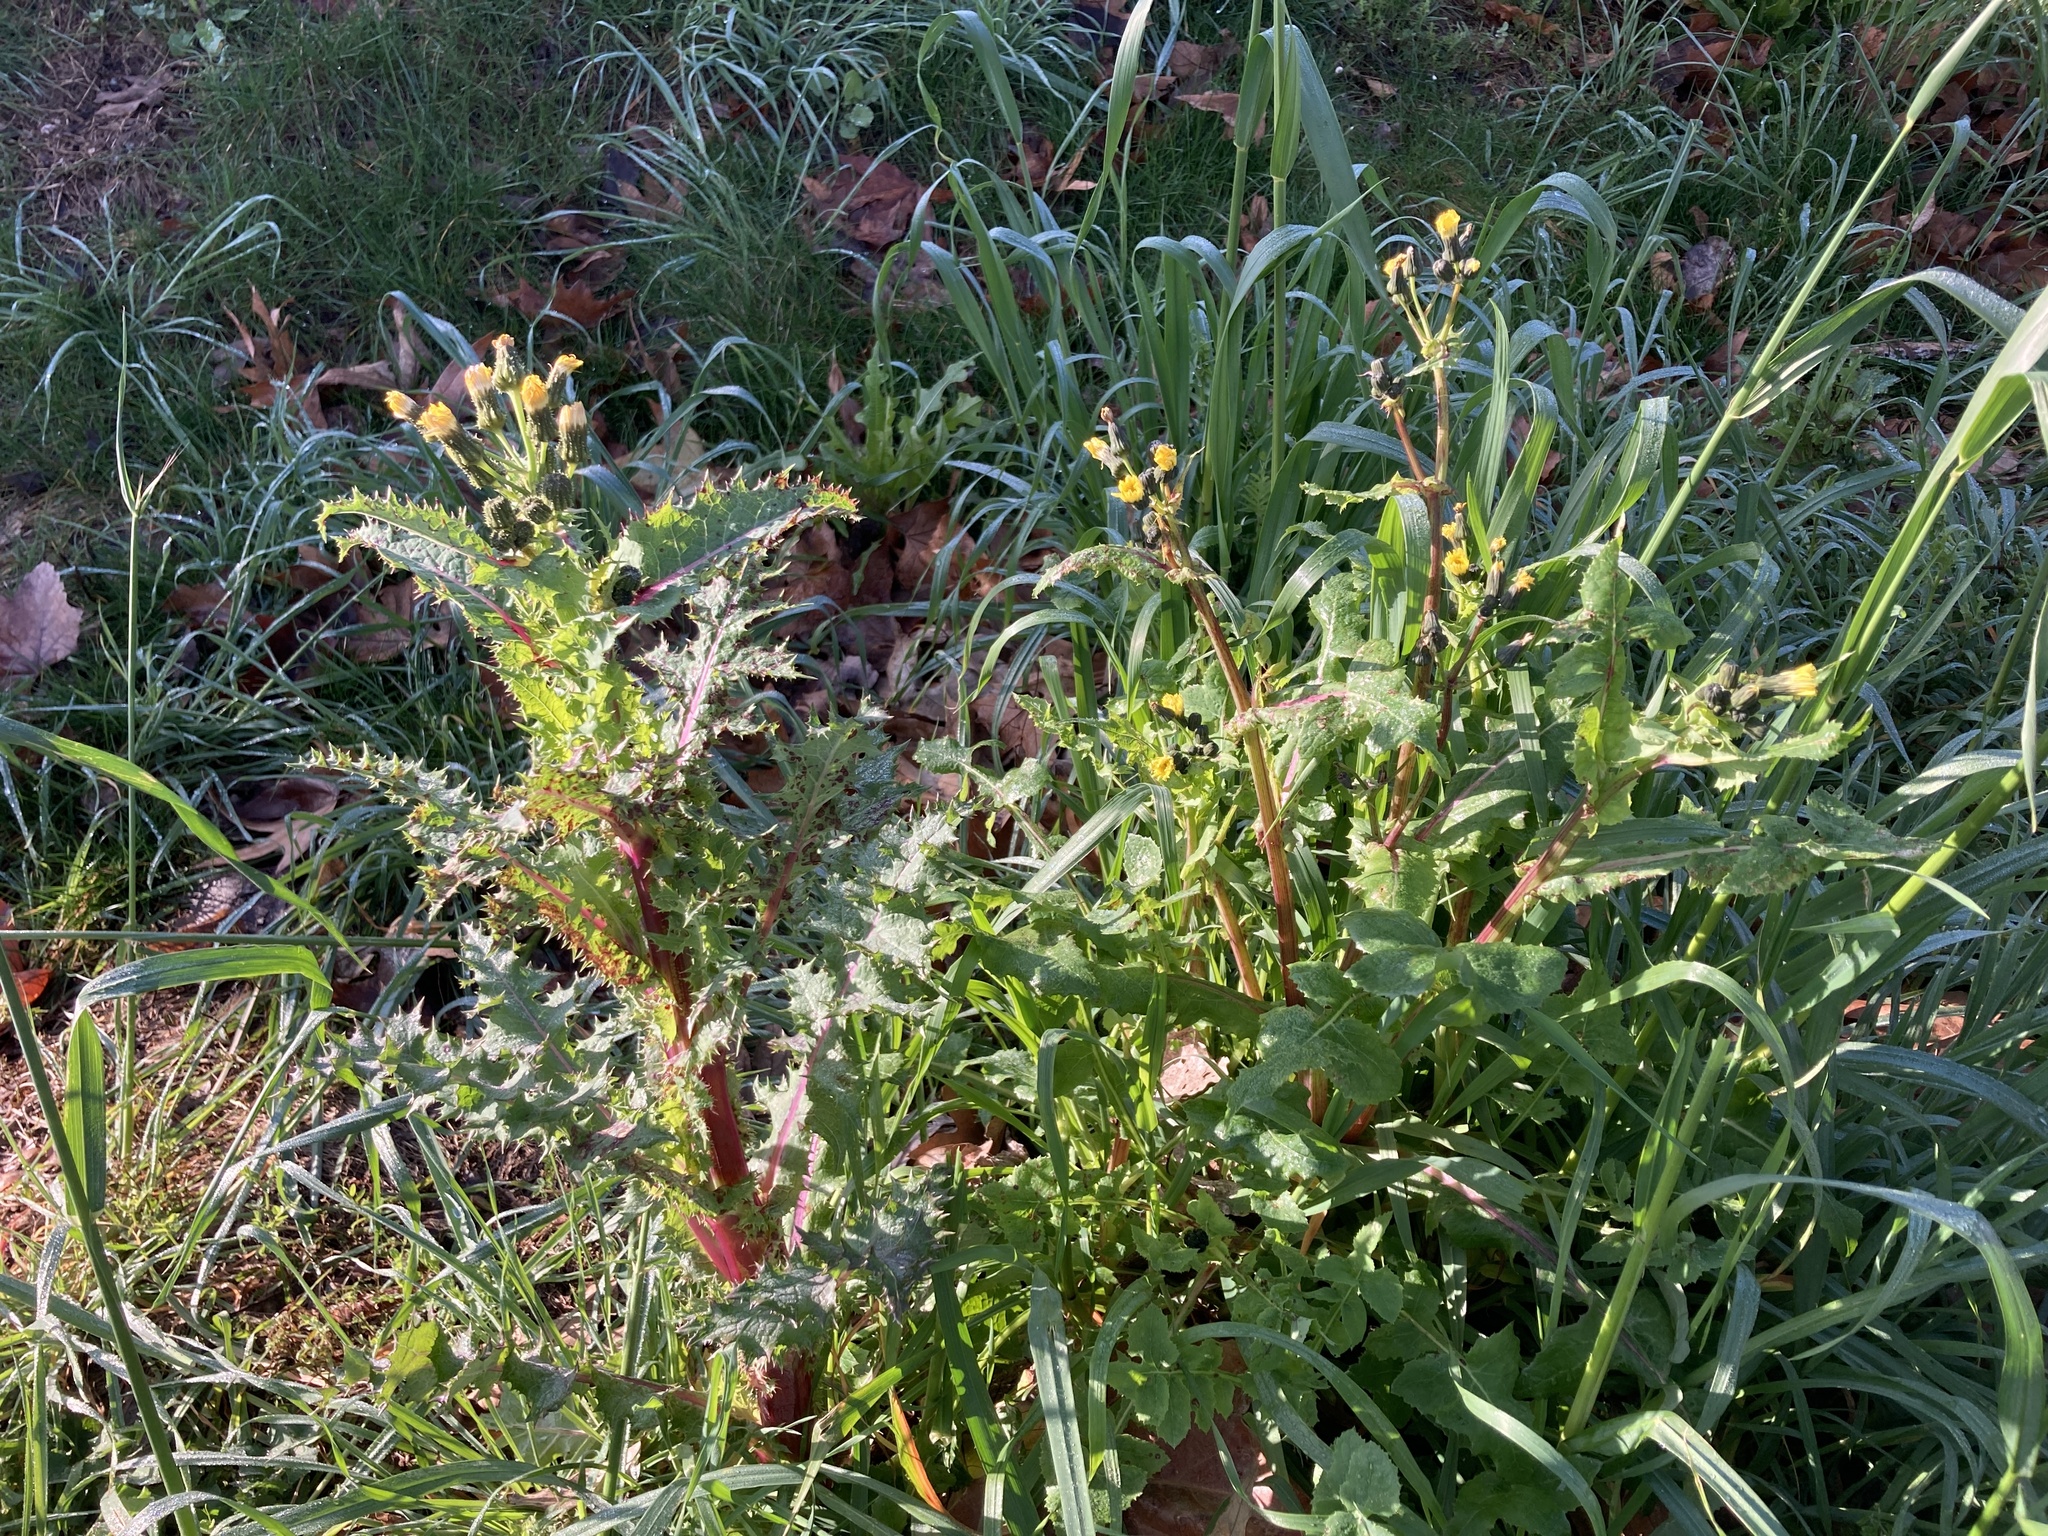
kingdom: Plantae
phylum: Tracheophyta
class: Magnoliopsida
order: Asterales
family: Asteraceae
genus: Sonchus
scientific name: Sonchus oleraceus
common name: Common sowthistle
